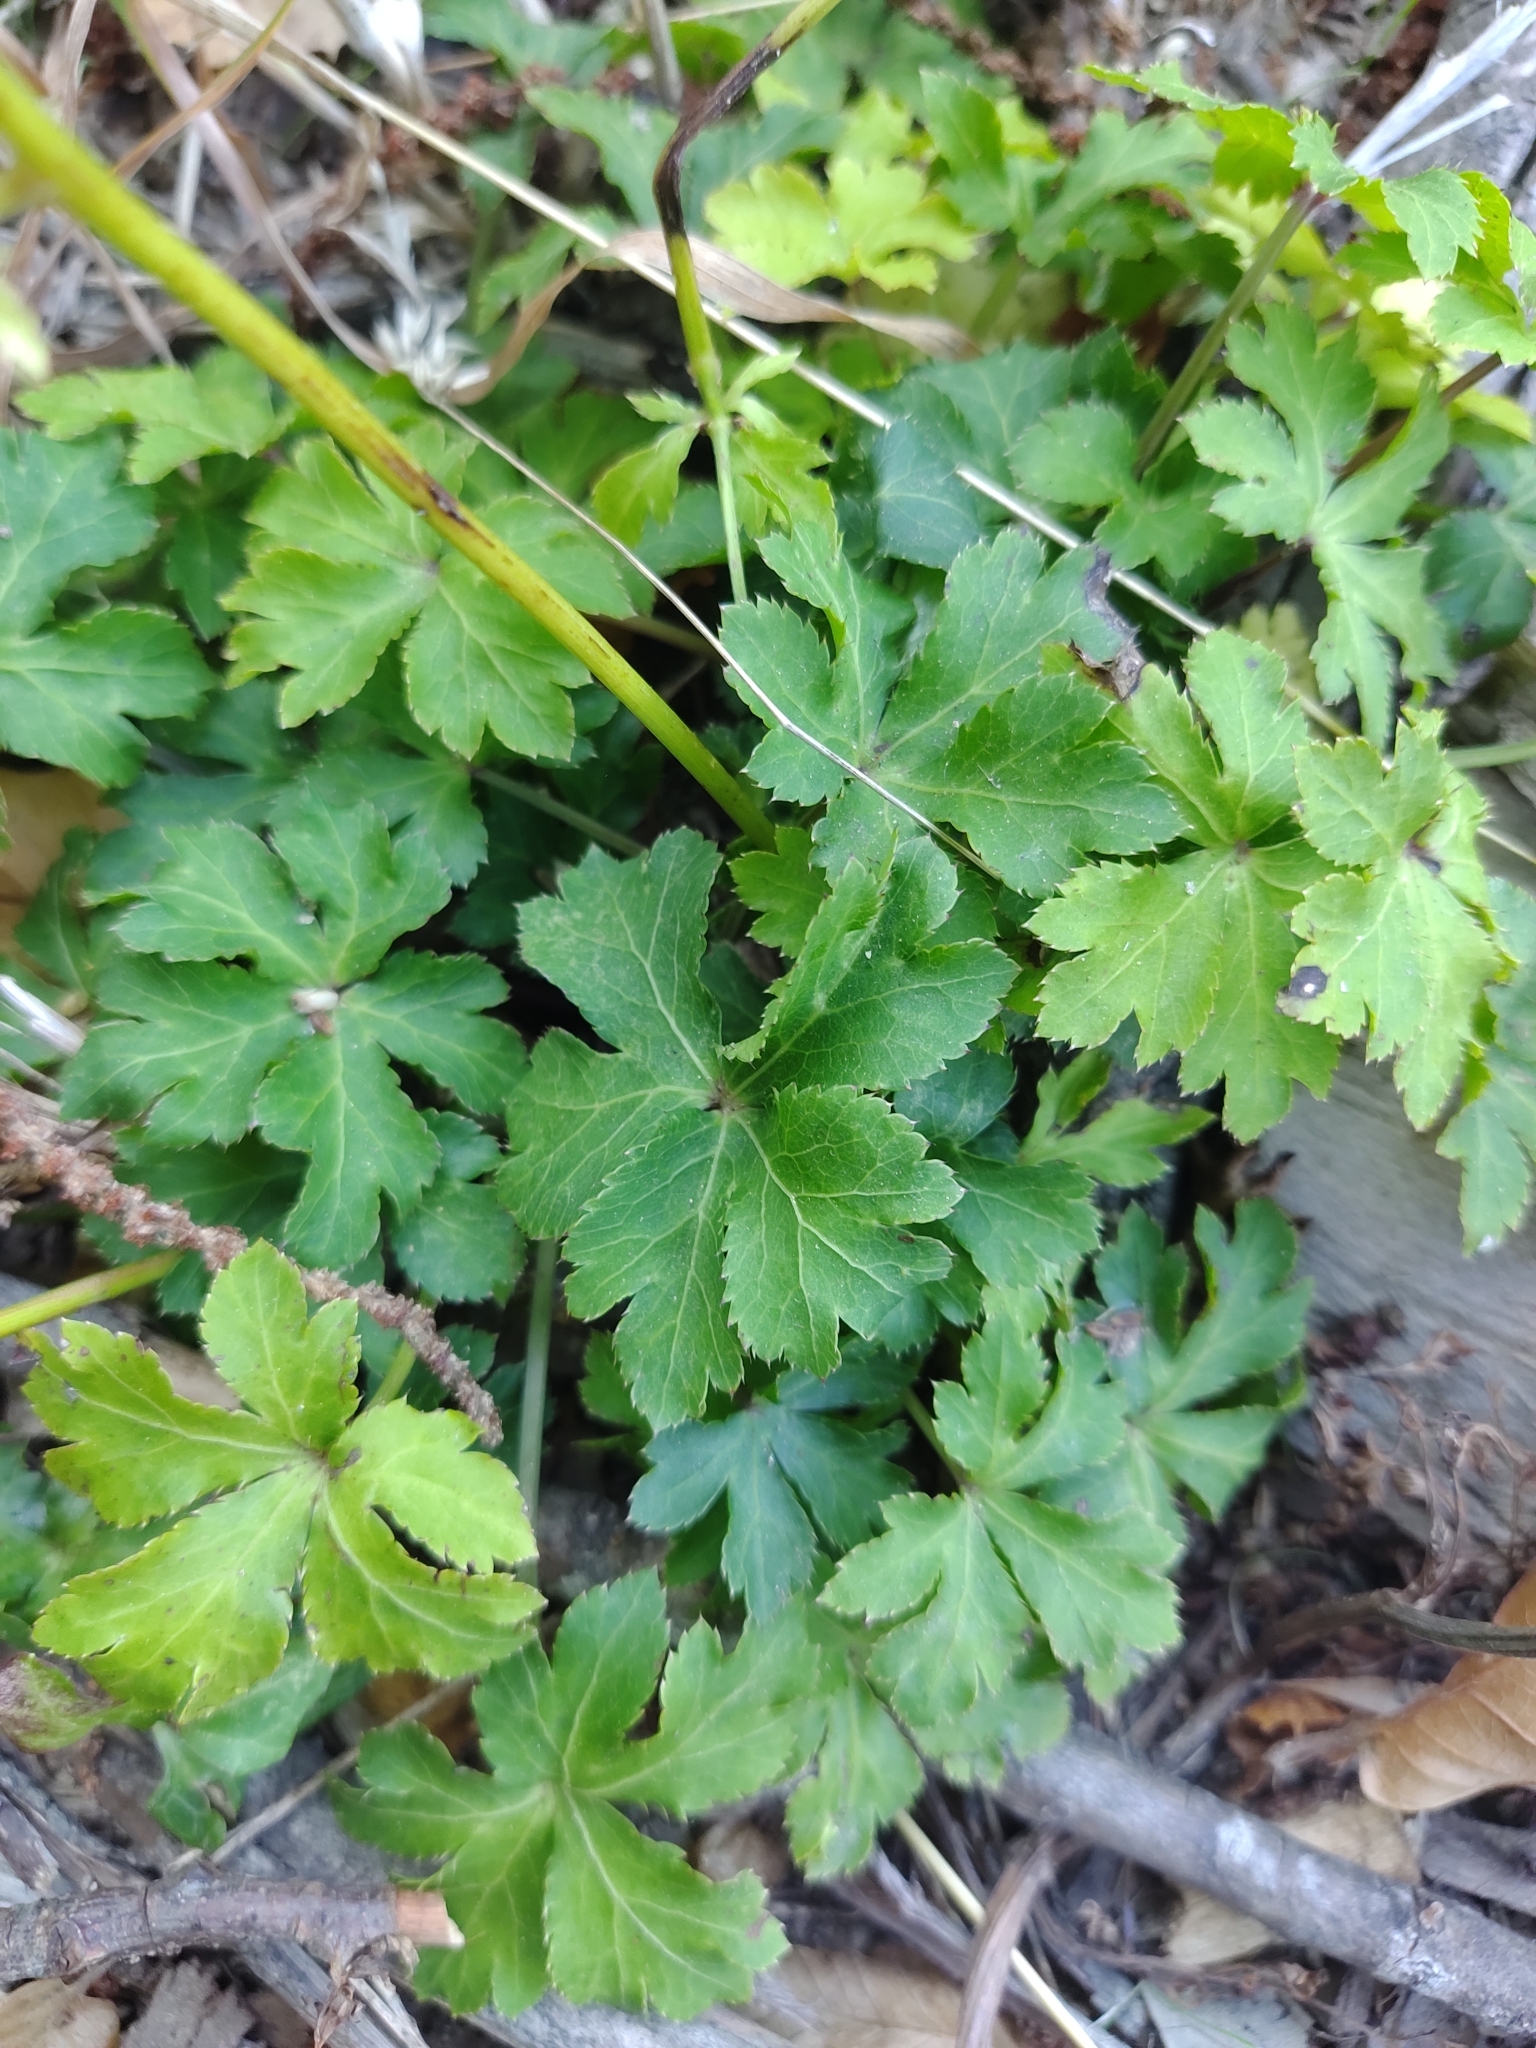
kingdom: Plantae
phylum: Tracheophyta
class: Magnoliopsida
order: Apiales
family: Apiaceae
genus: Sanicula
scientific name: Sanicula europaea
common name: Sanicle
